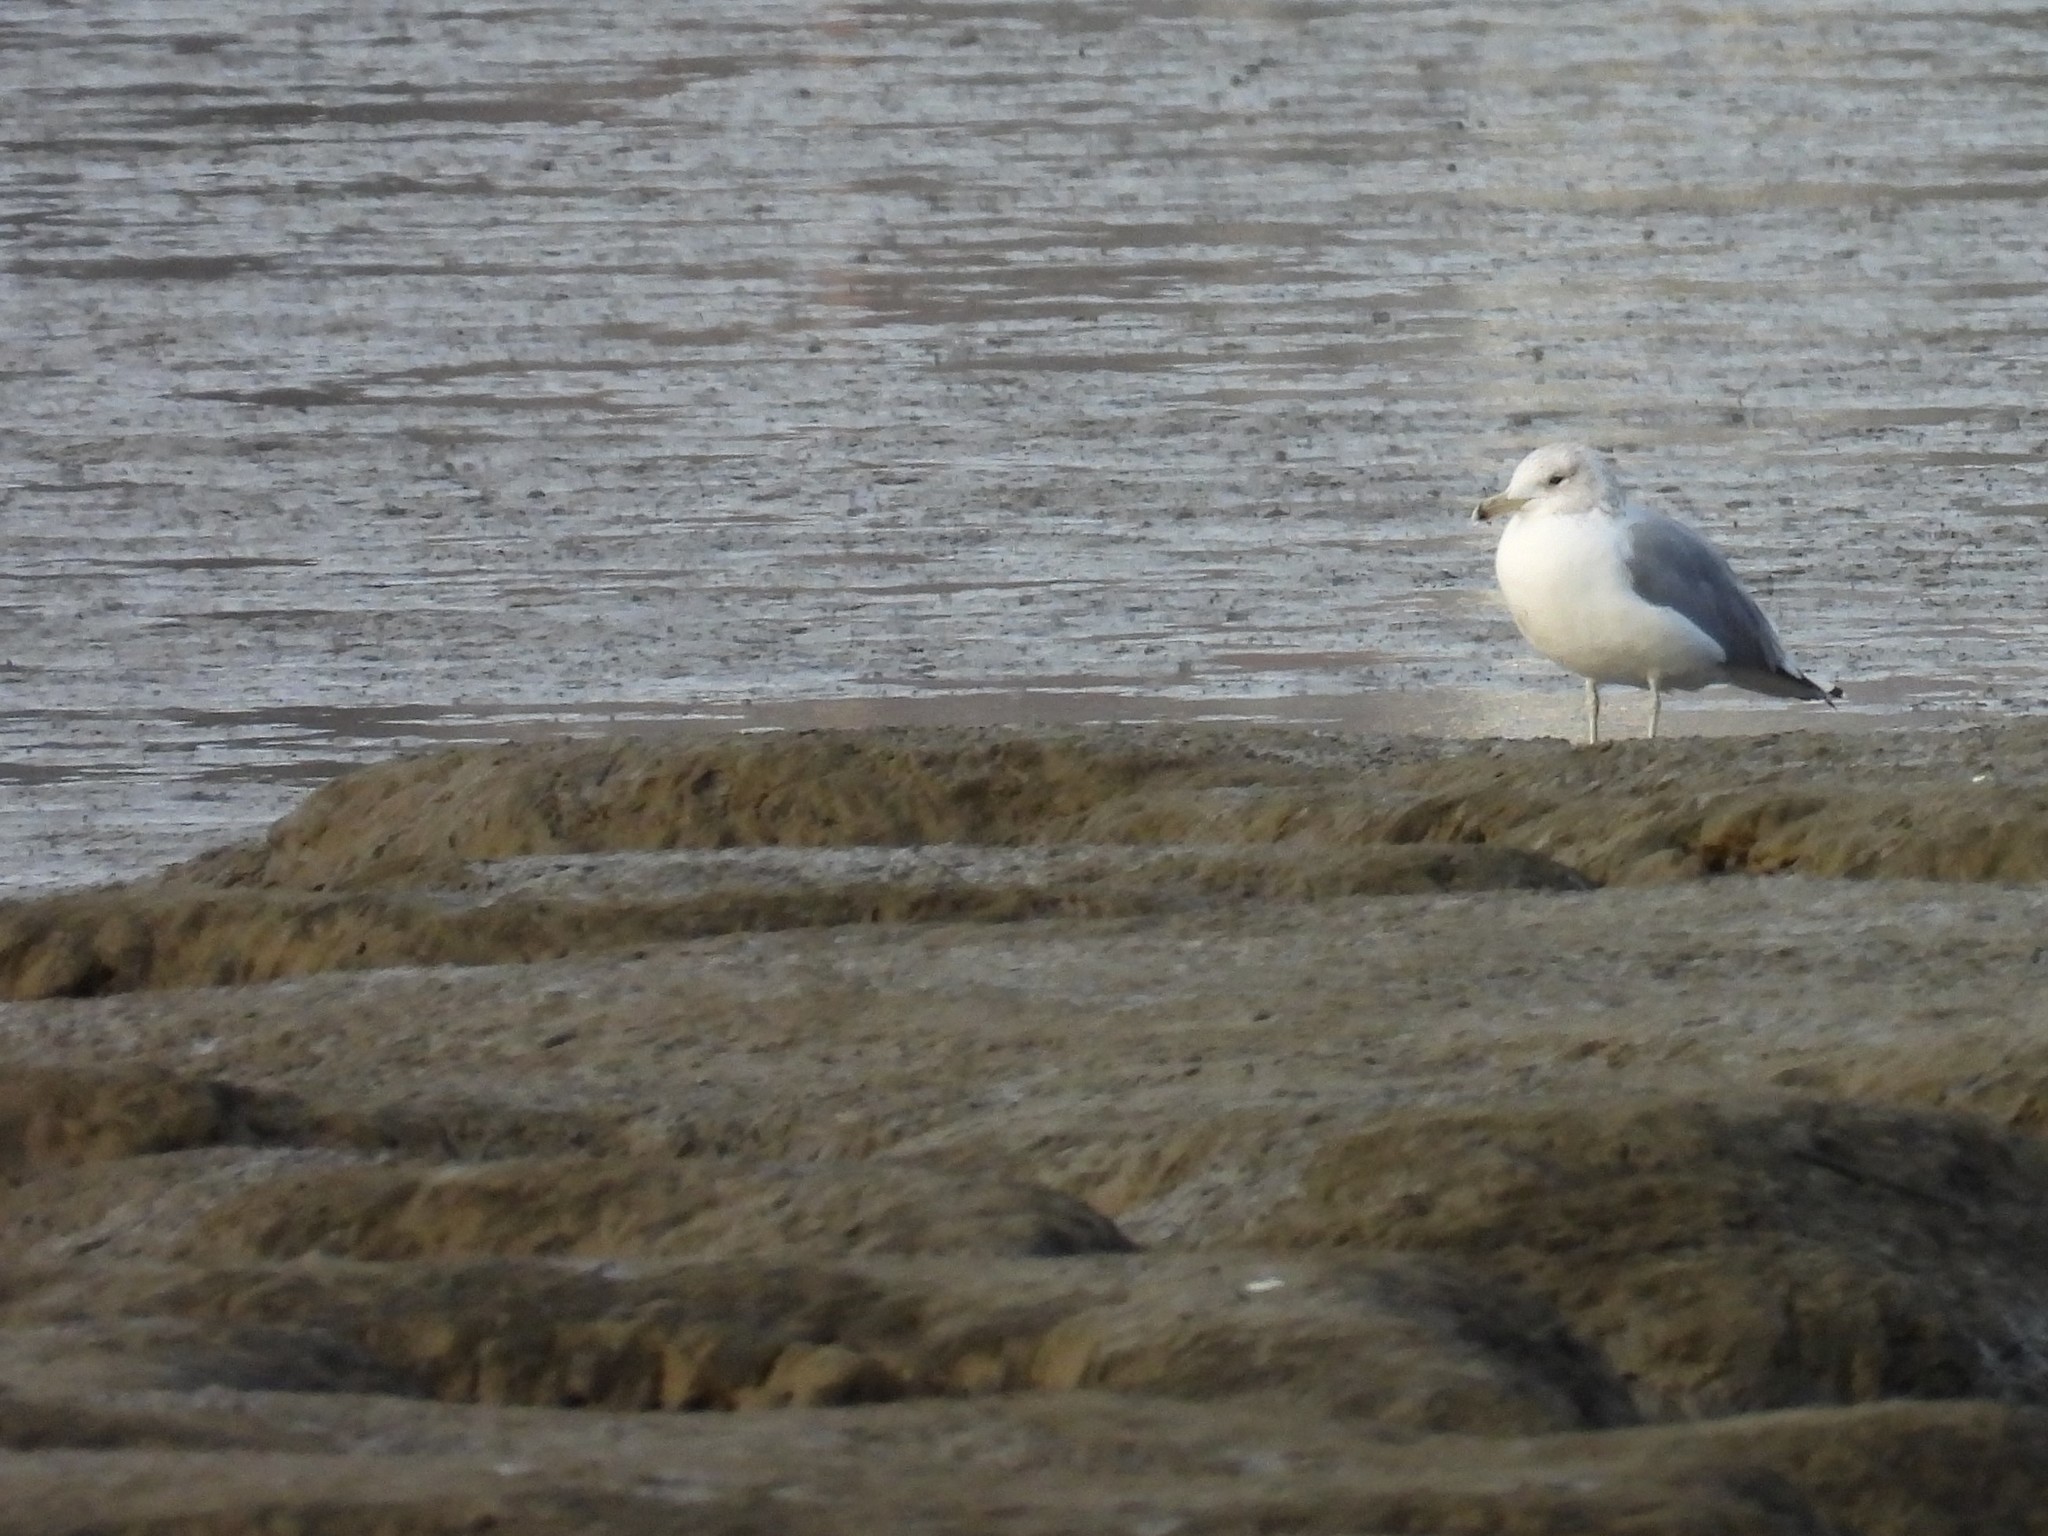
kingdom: Animalia
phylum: Chordata
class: Aves
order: Charadriiformes
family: Laridae
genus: Larus
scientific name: Larus californicus
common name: California gull
